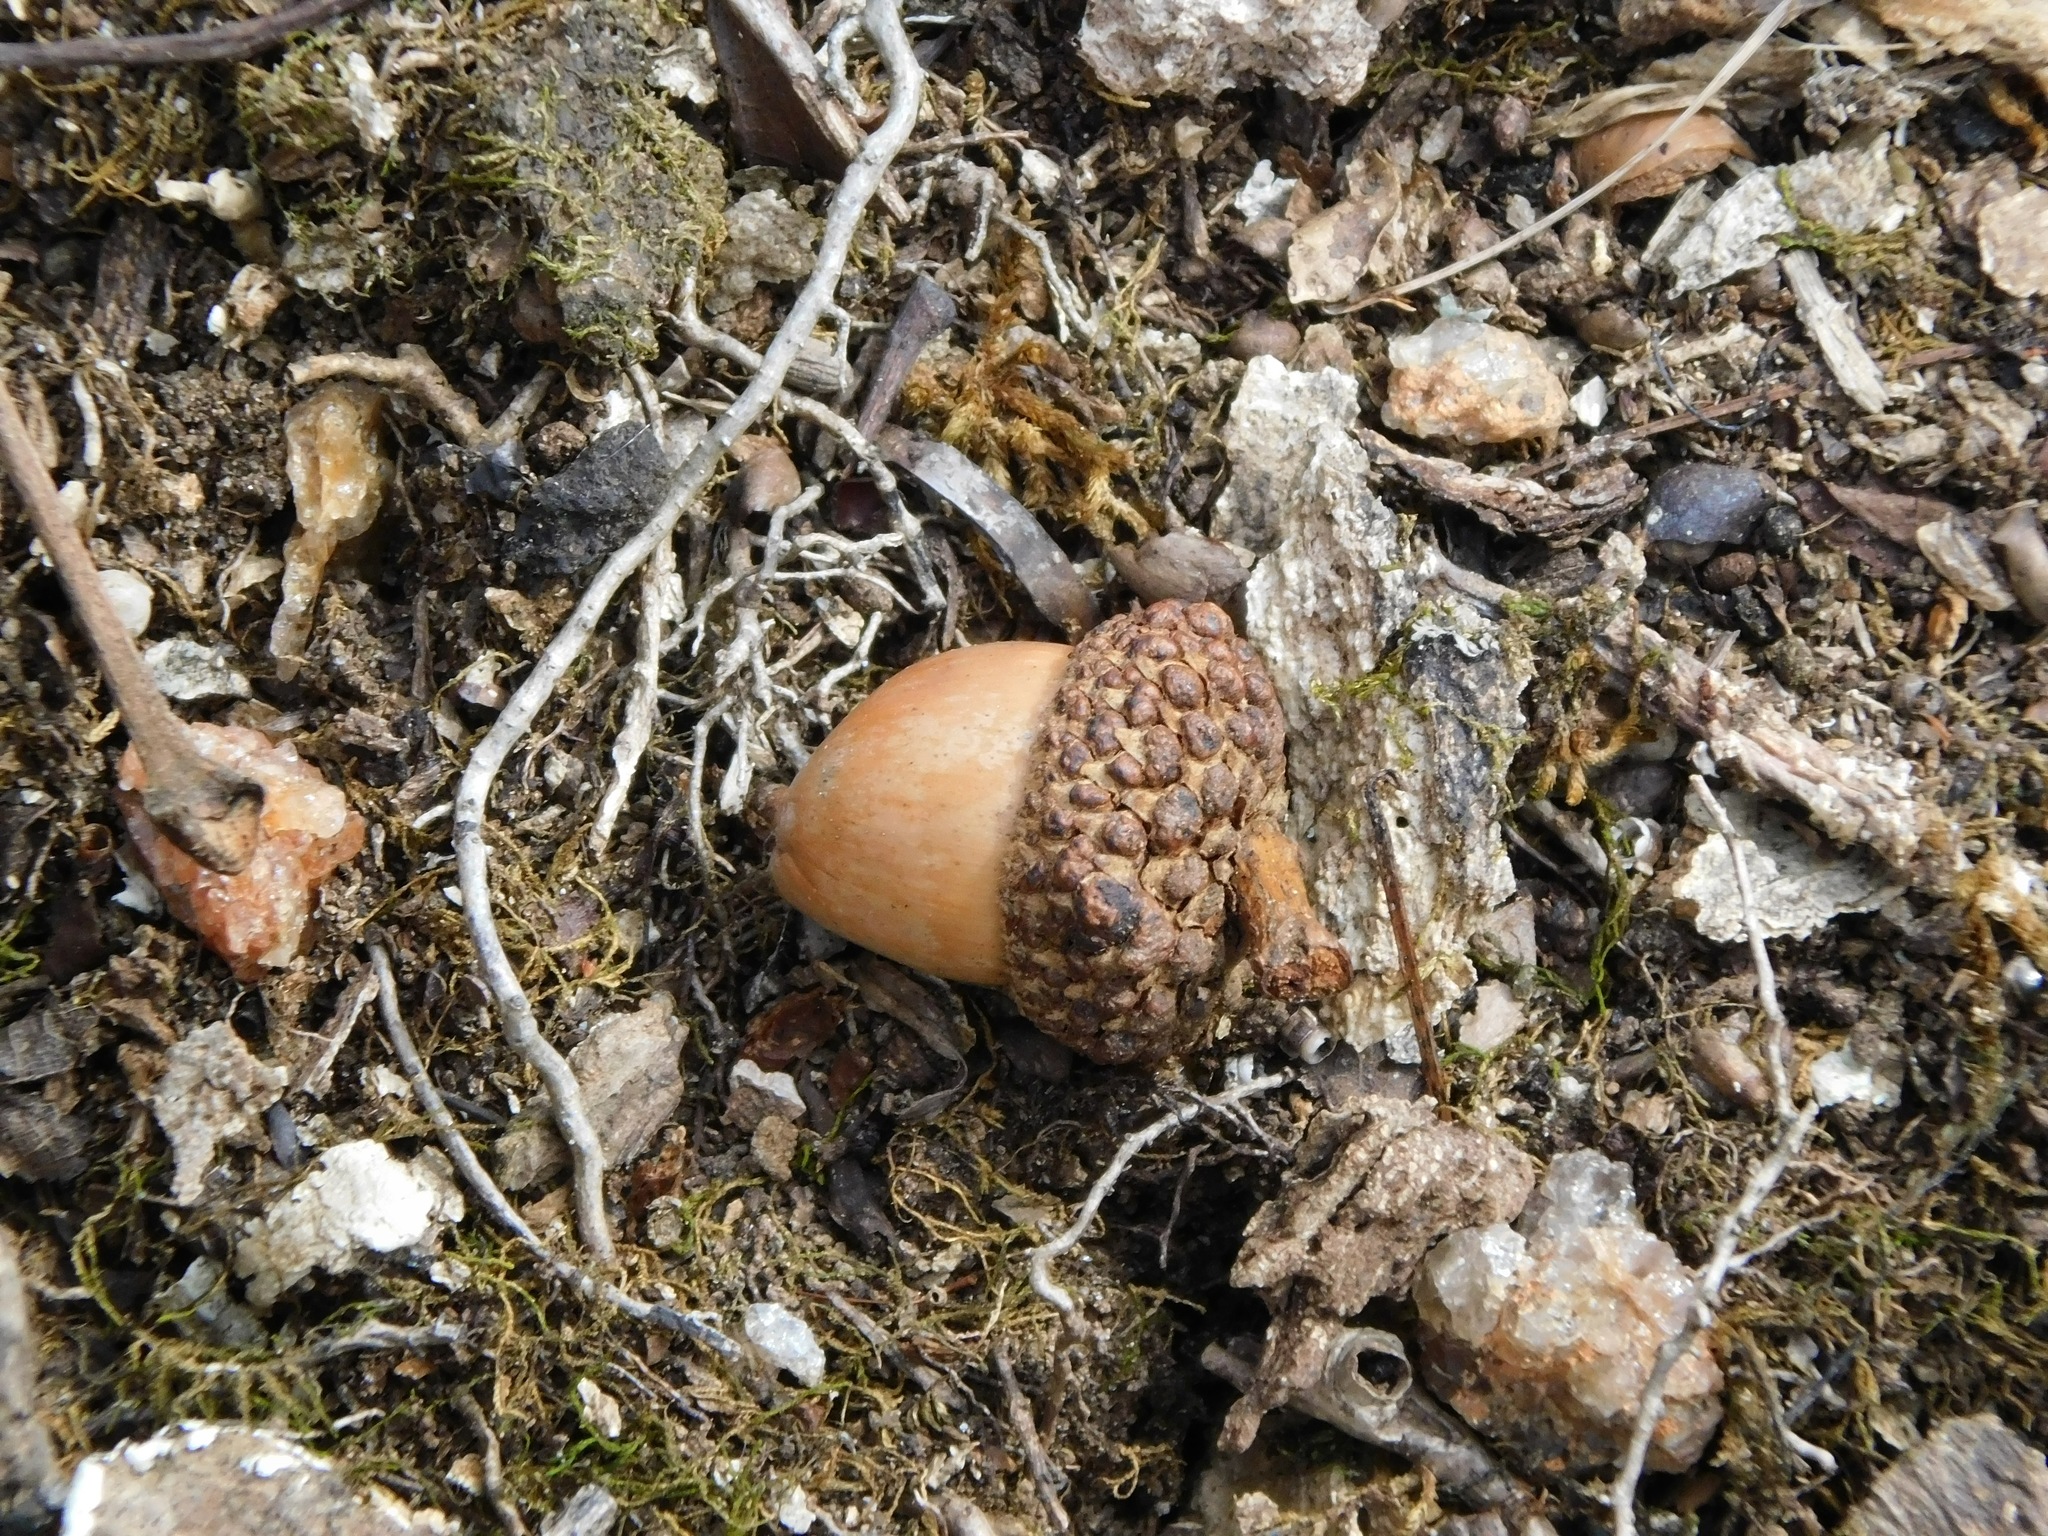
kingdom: Plantae
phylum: Tracheophyta
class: Magnoliopsida
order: Fagales
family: Fagaceae
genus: Quercus
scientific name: Quercus alba
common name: White oak
